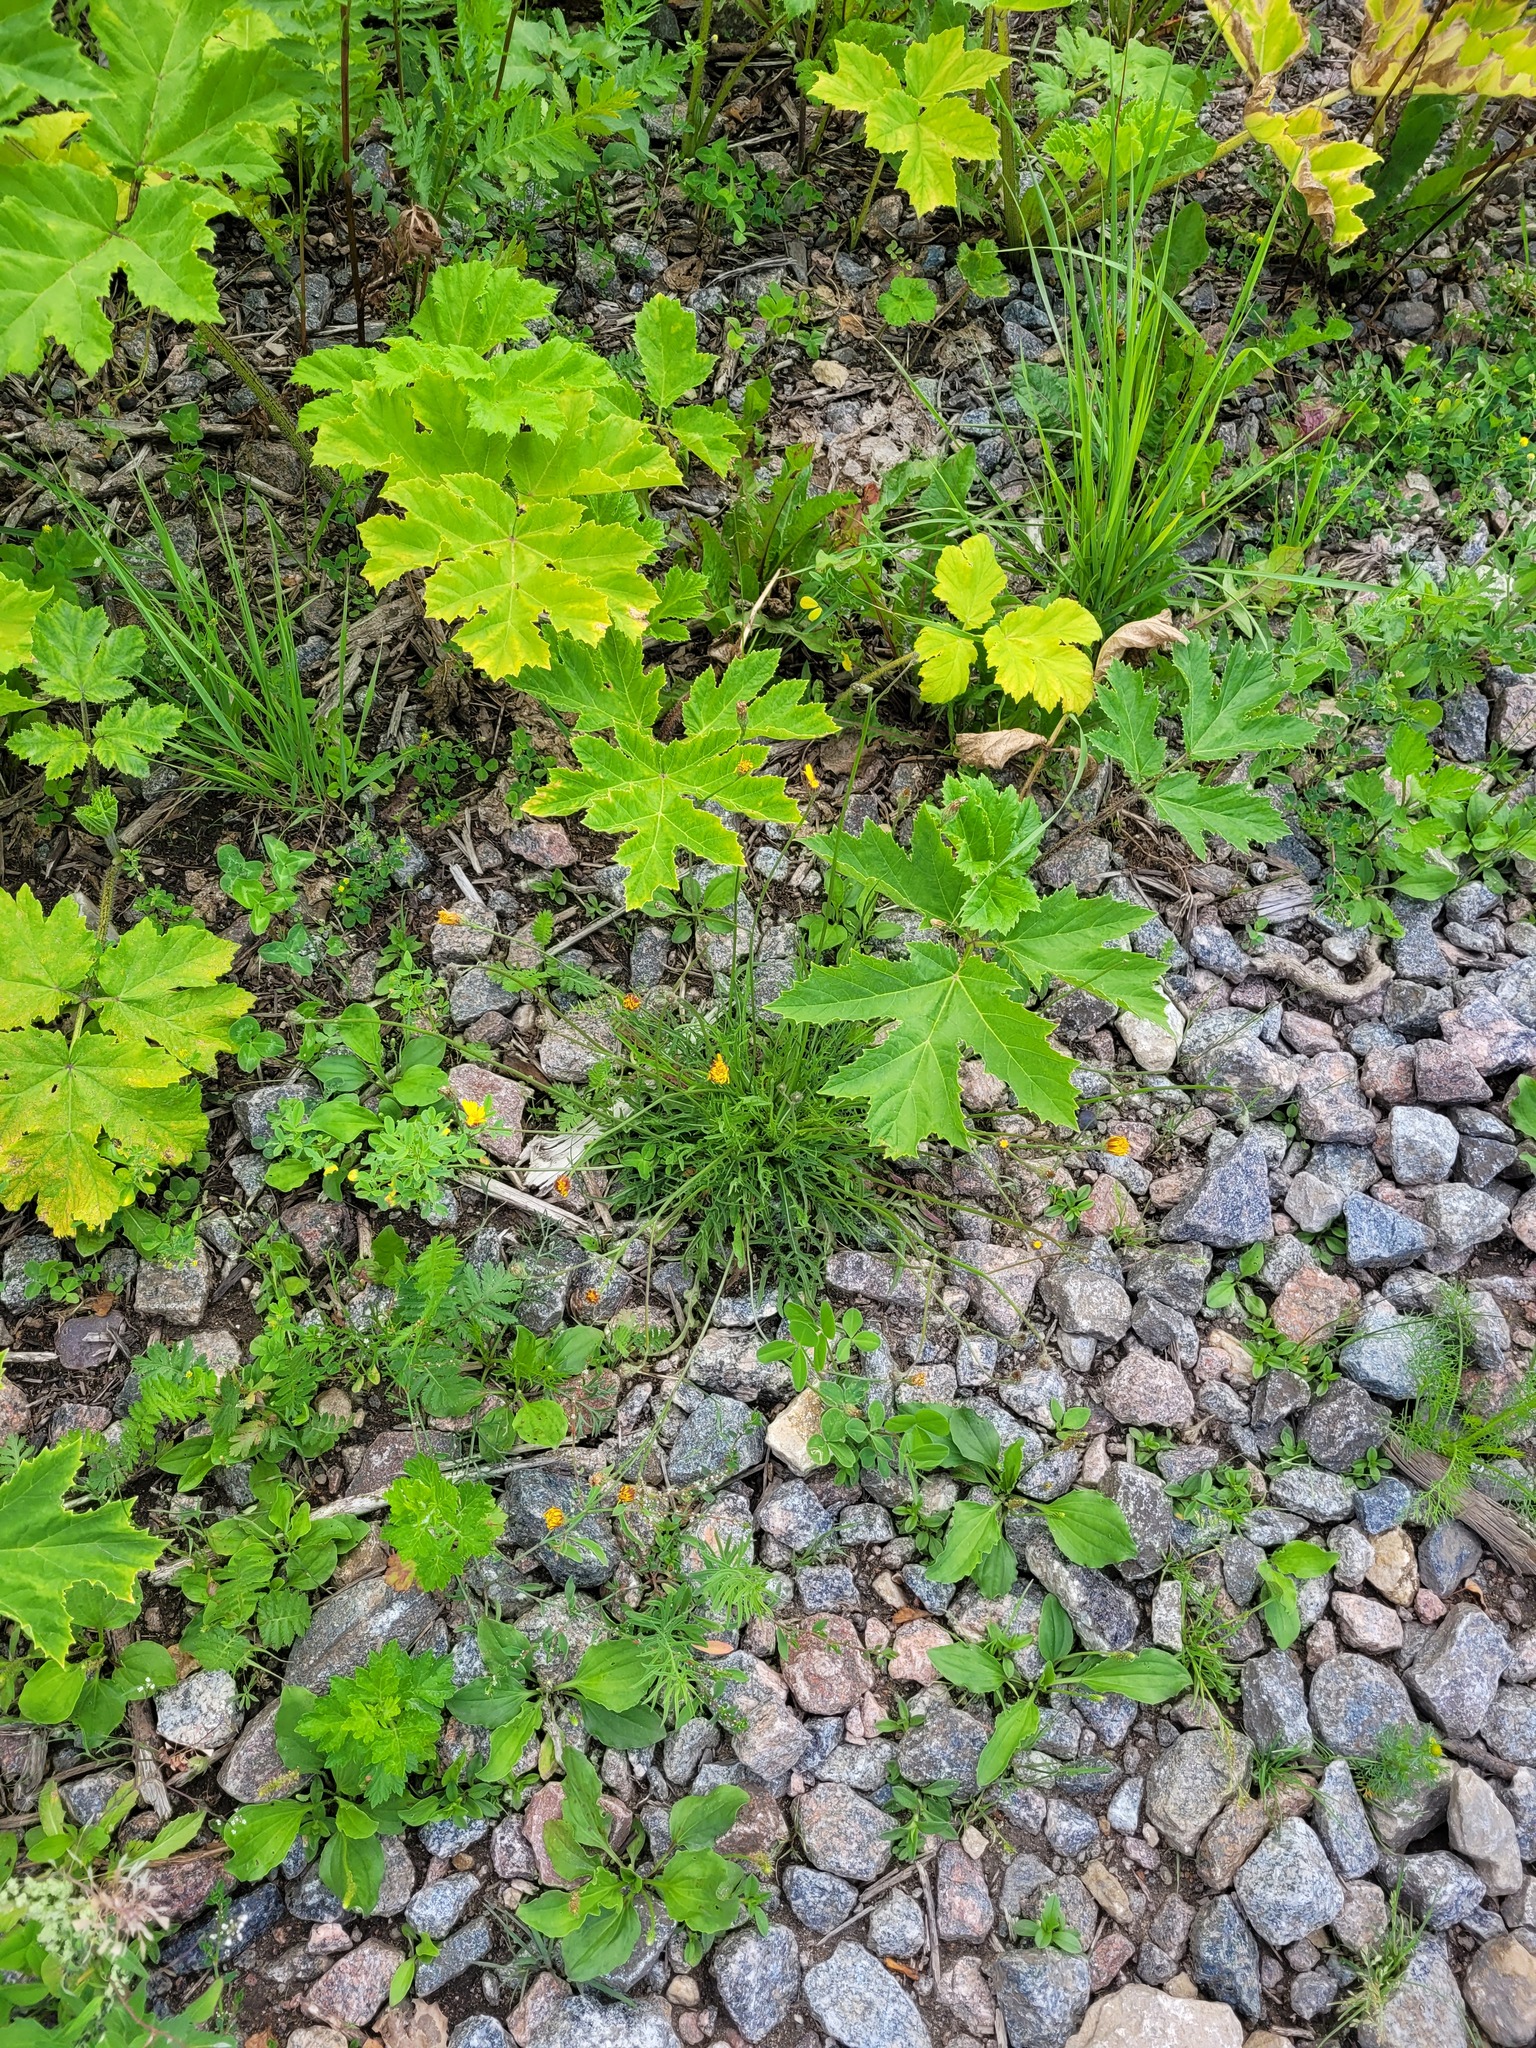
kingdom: Plantae
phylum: Tracheophyta
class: Magnoliopsida
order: Asterales
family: Asteraceae
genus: Scorzoneroides
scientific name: Scorzoneroides autumnalis
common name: Autumn hawkbit
